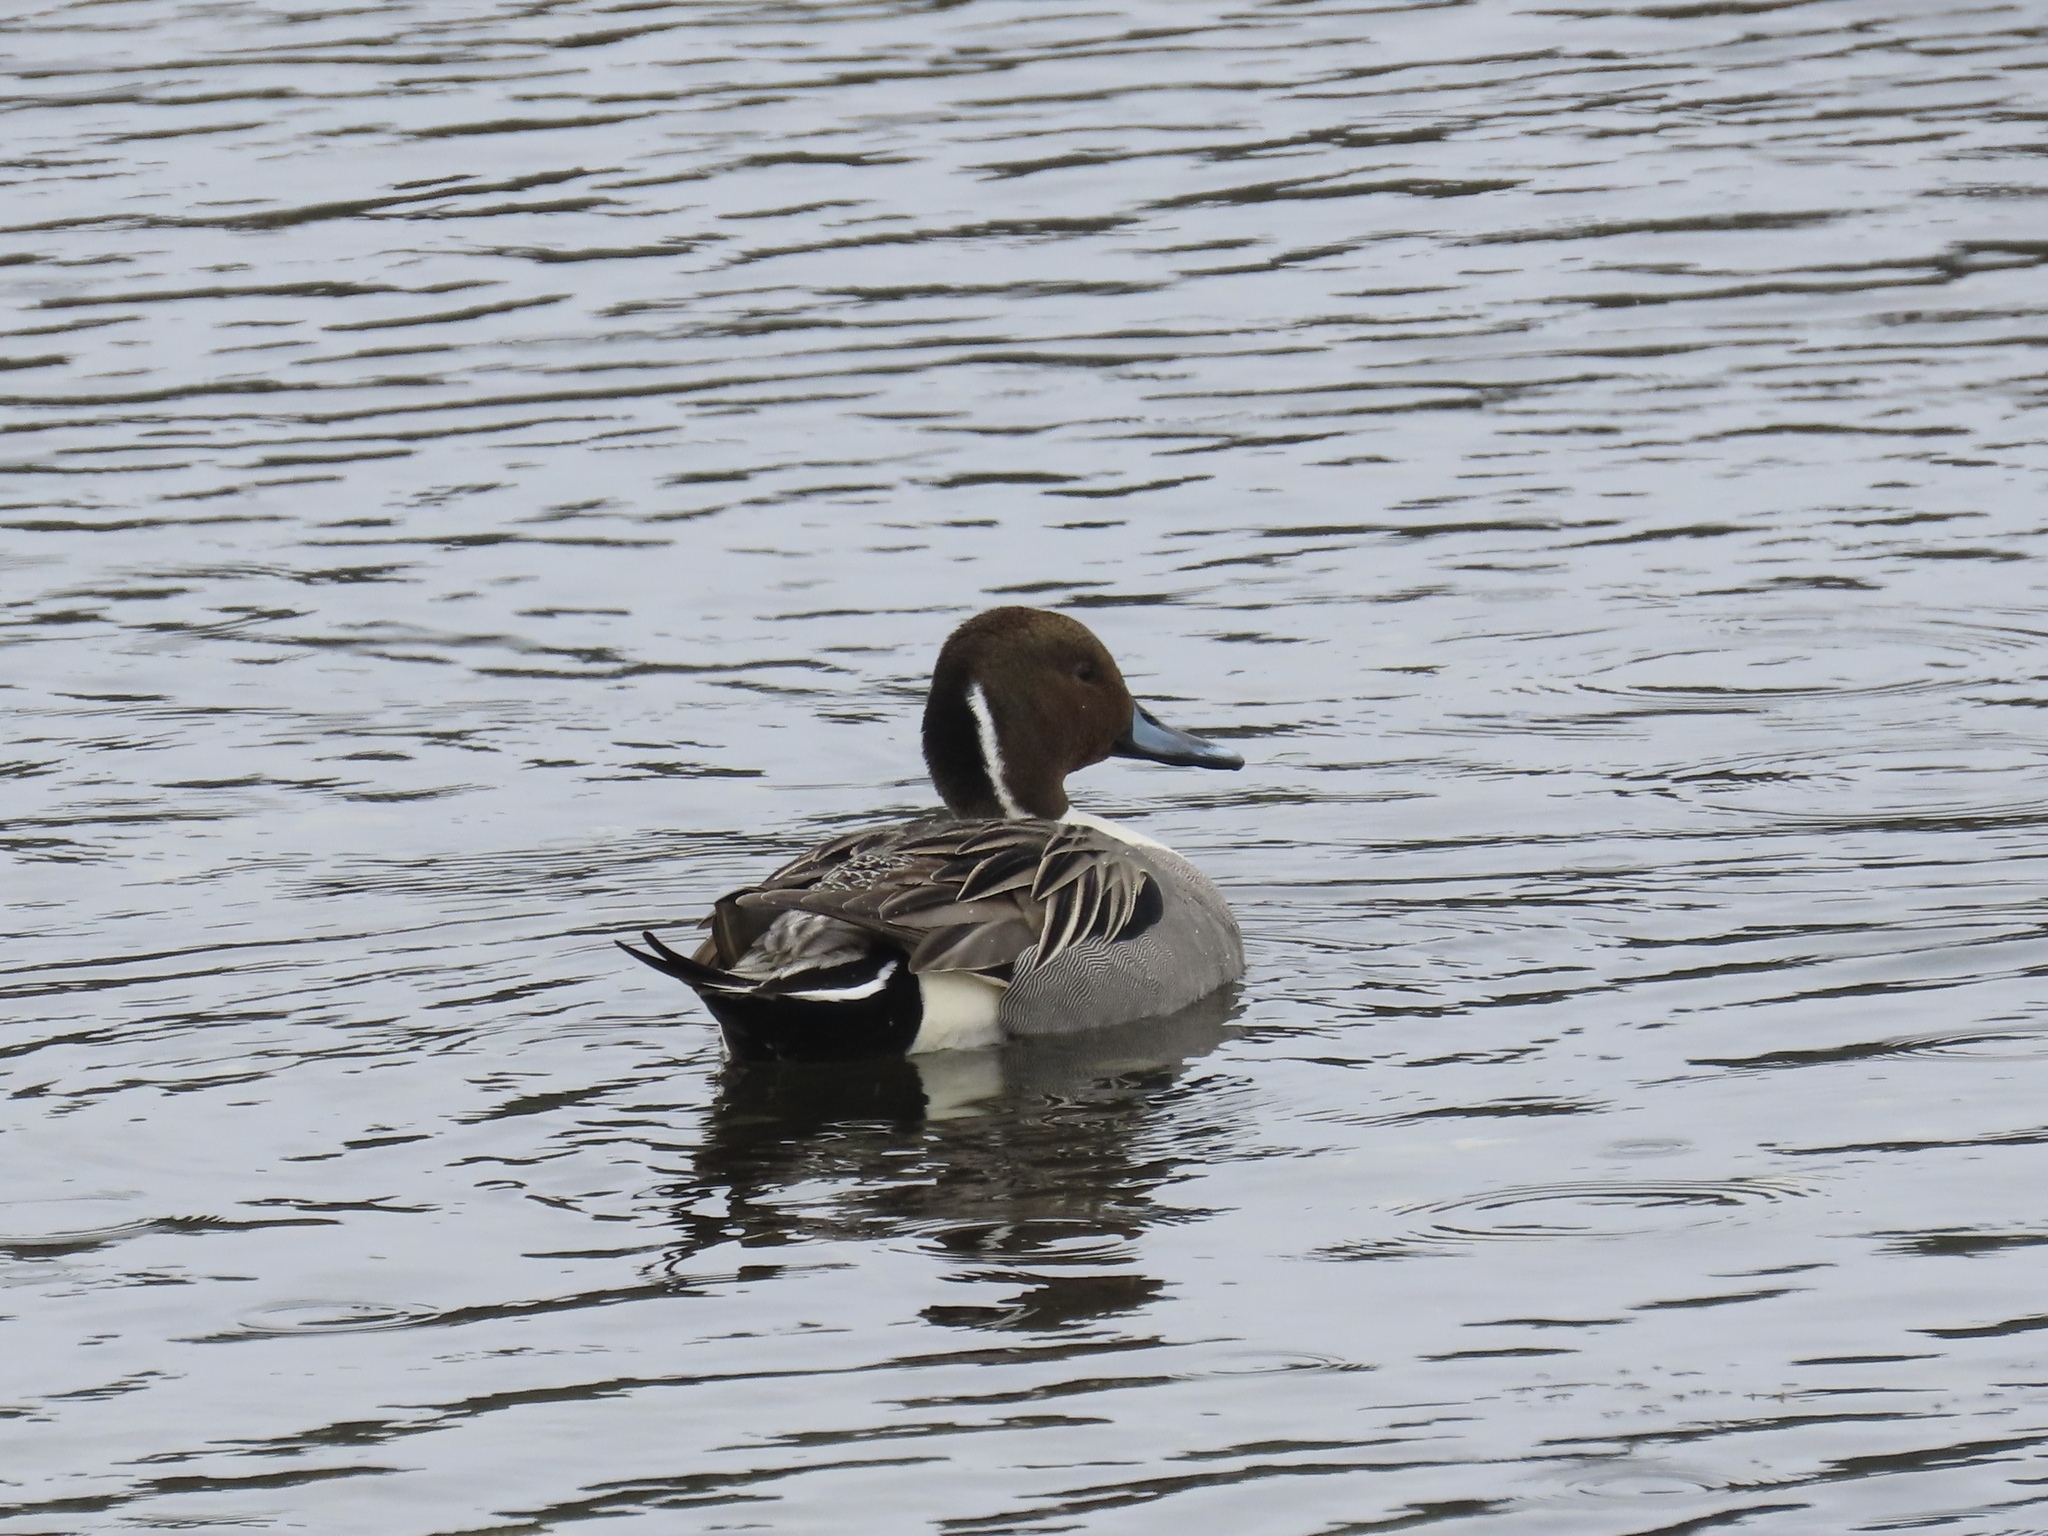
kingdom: Animalia
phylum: Chordata
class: Aves
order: Anseriformes
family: Anatidae
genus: Anas
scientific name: Anas acuta
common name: Northern pintail
